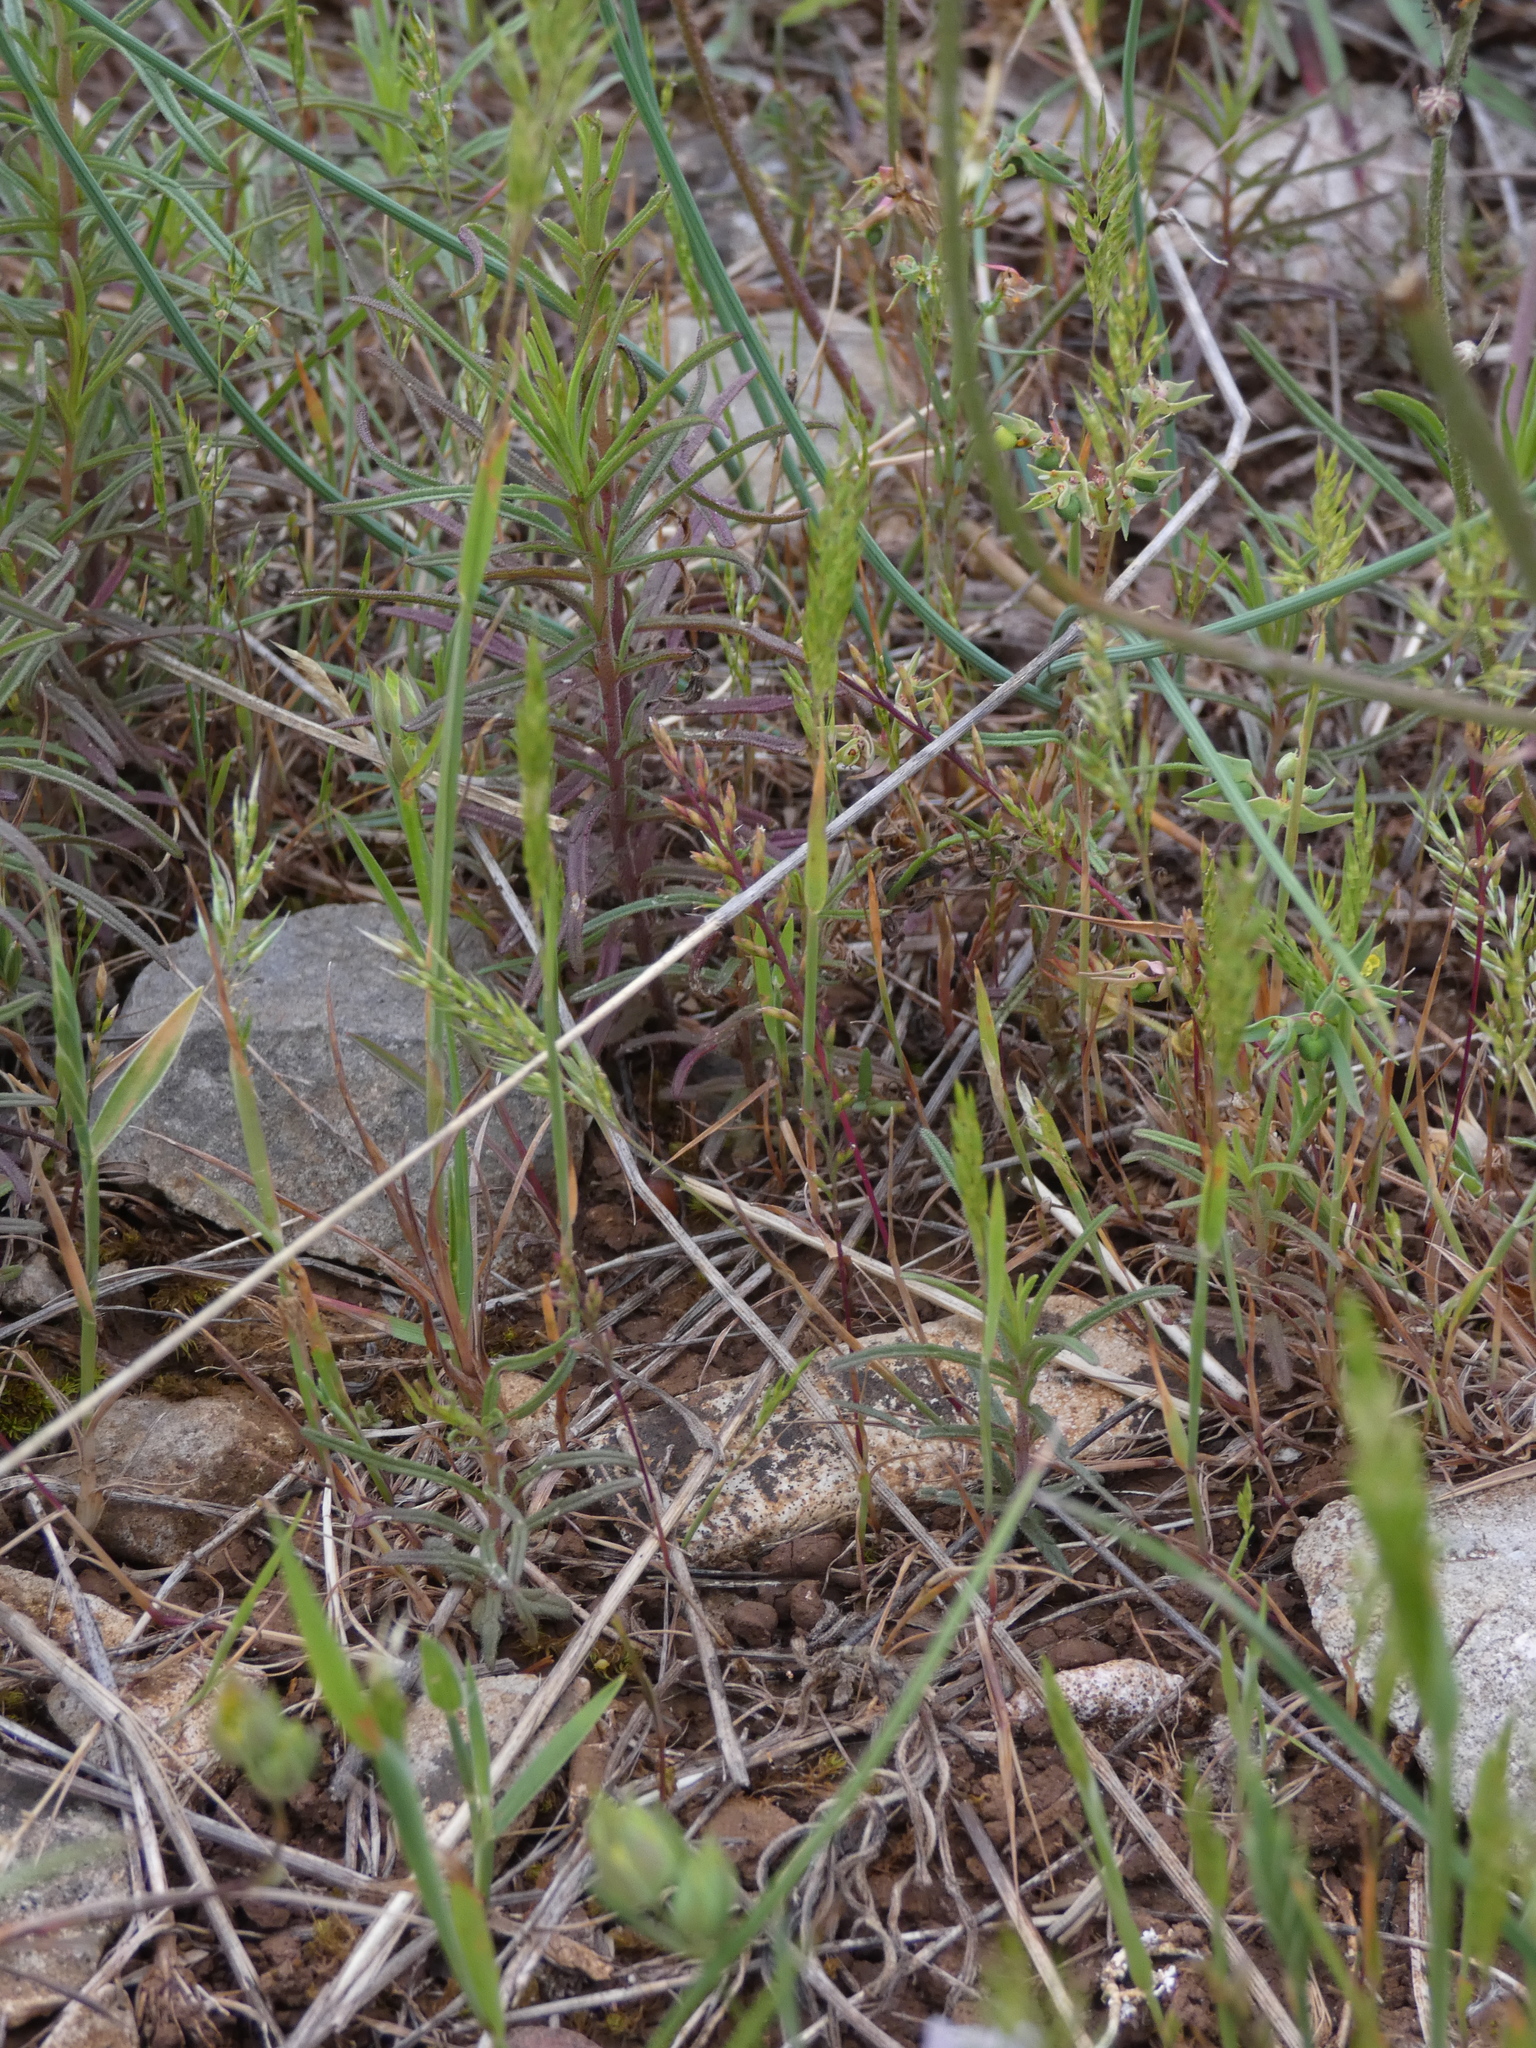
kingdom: Plantae
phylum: Tracheophyta
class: Liliopsida
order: Poales
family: Poaceae
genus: Gastridium
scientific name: Gastridium ventricosum
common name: Nit-grass
